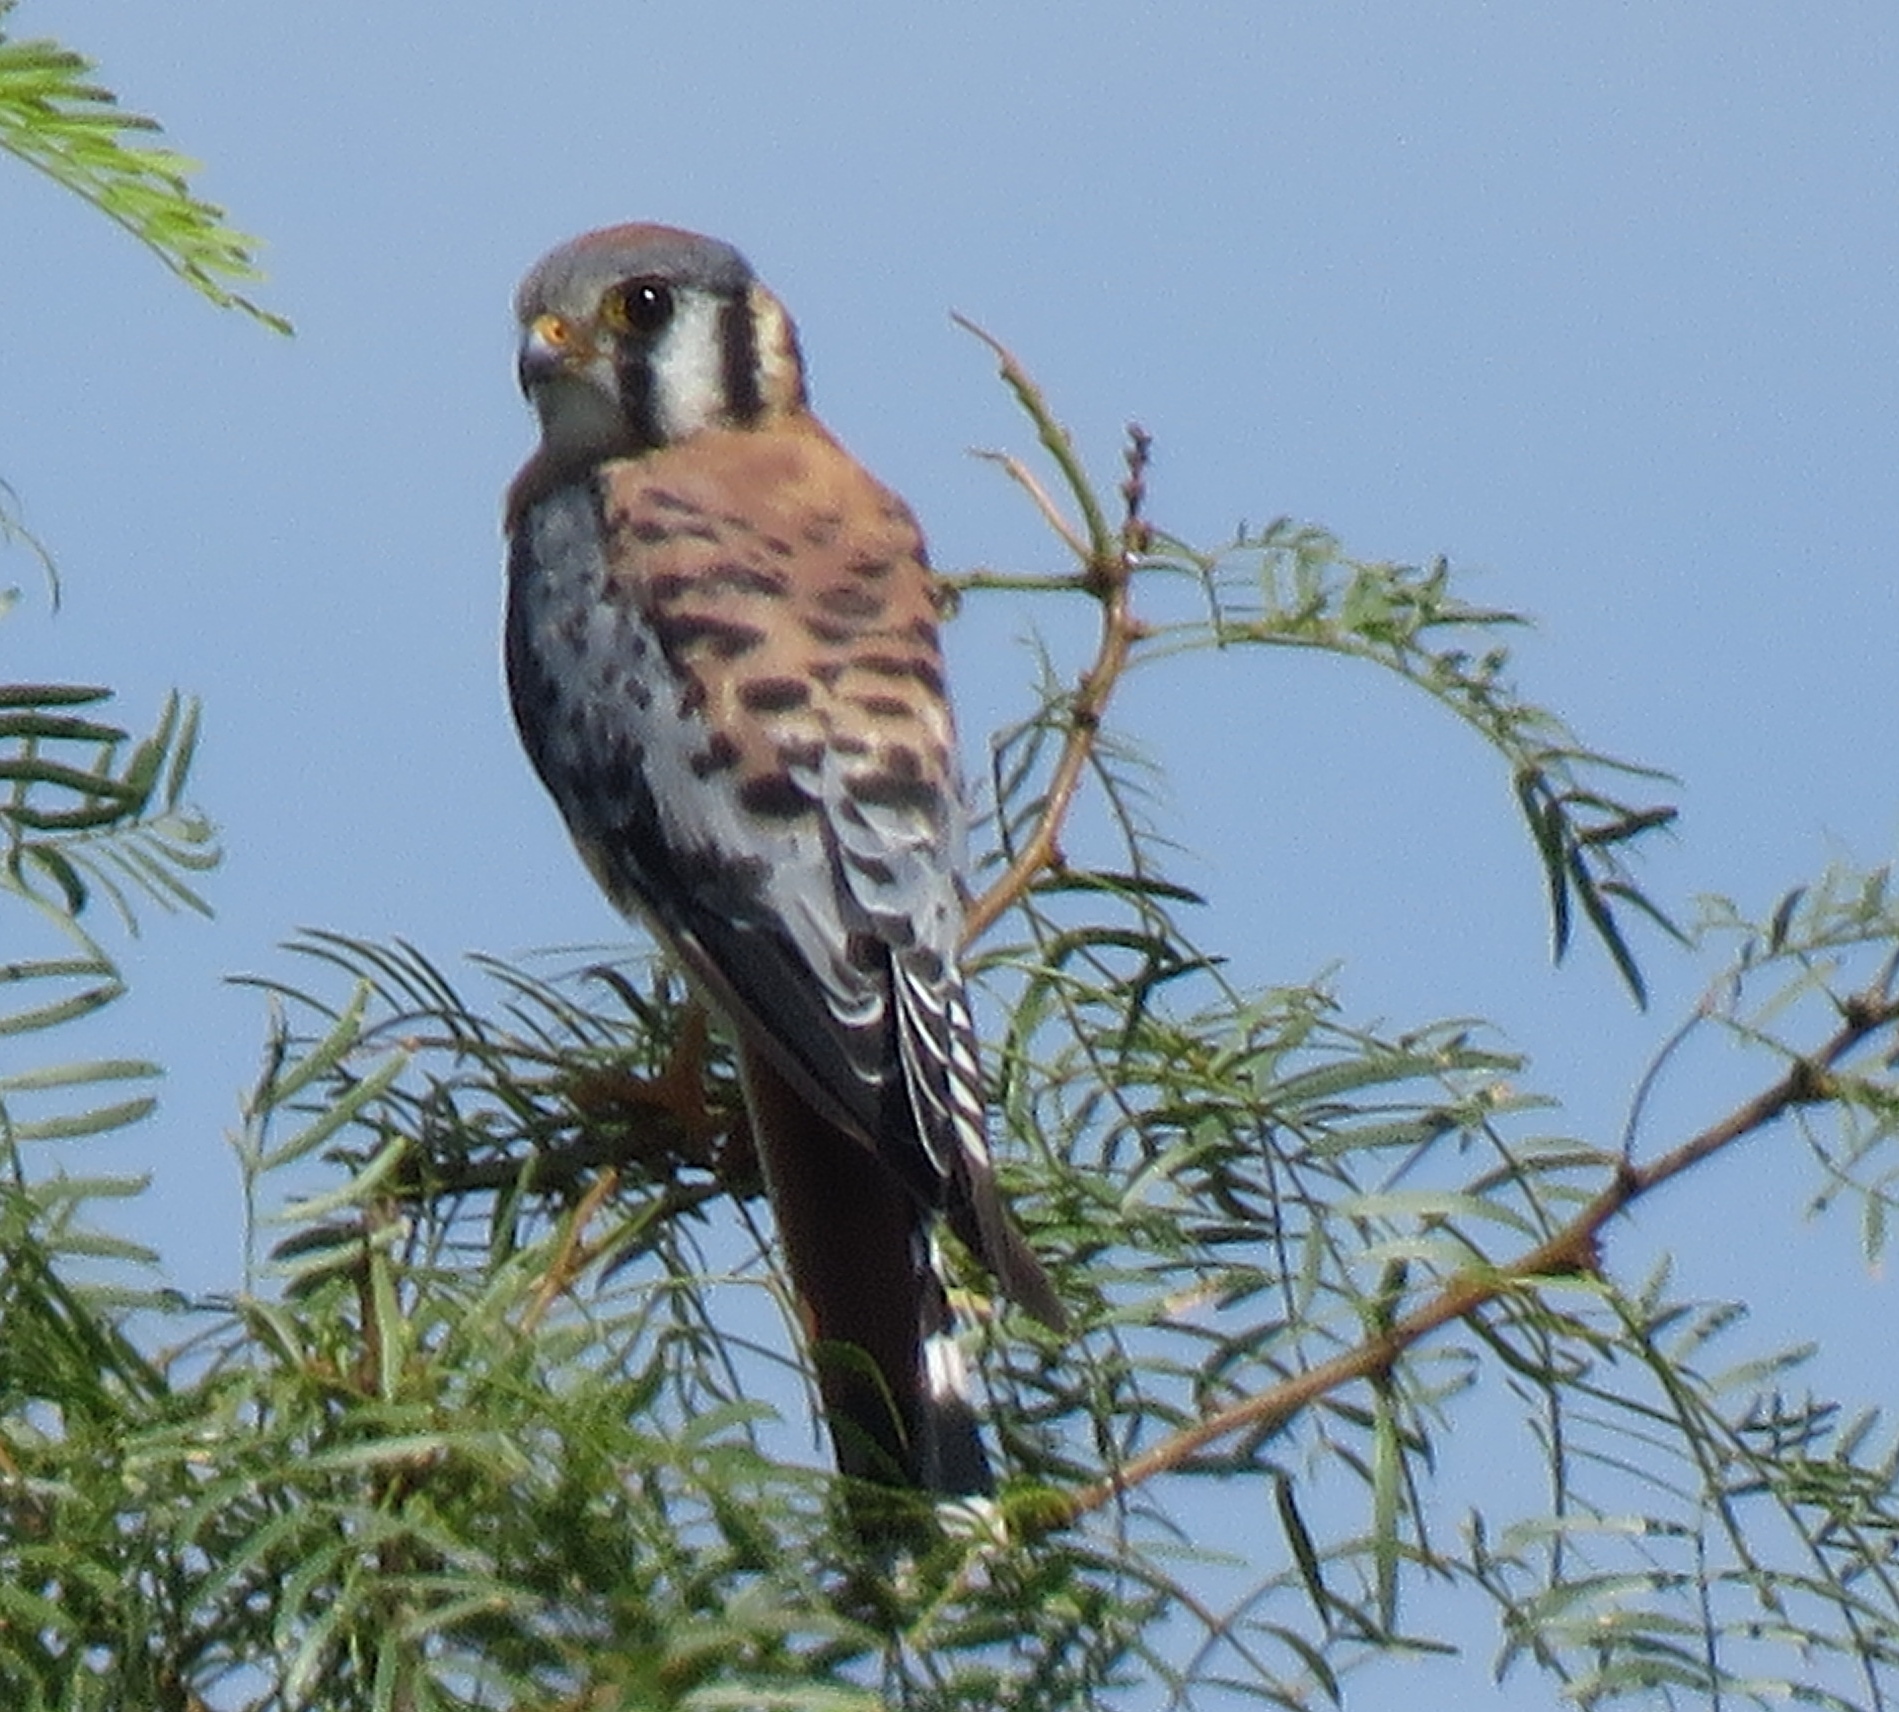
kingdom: Animalia
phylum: Chordata
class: Aves
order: Falconiformes
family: Falconidae
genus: Falco
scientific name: Falco sparverius
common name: American kestrel
